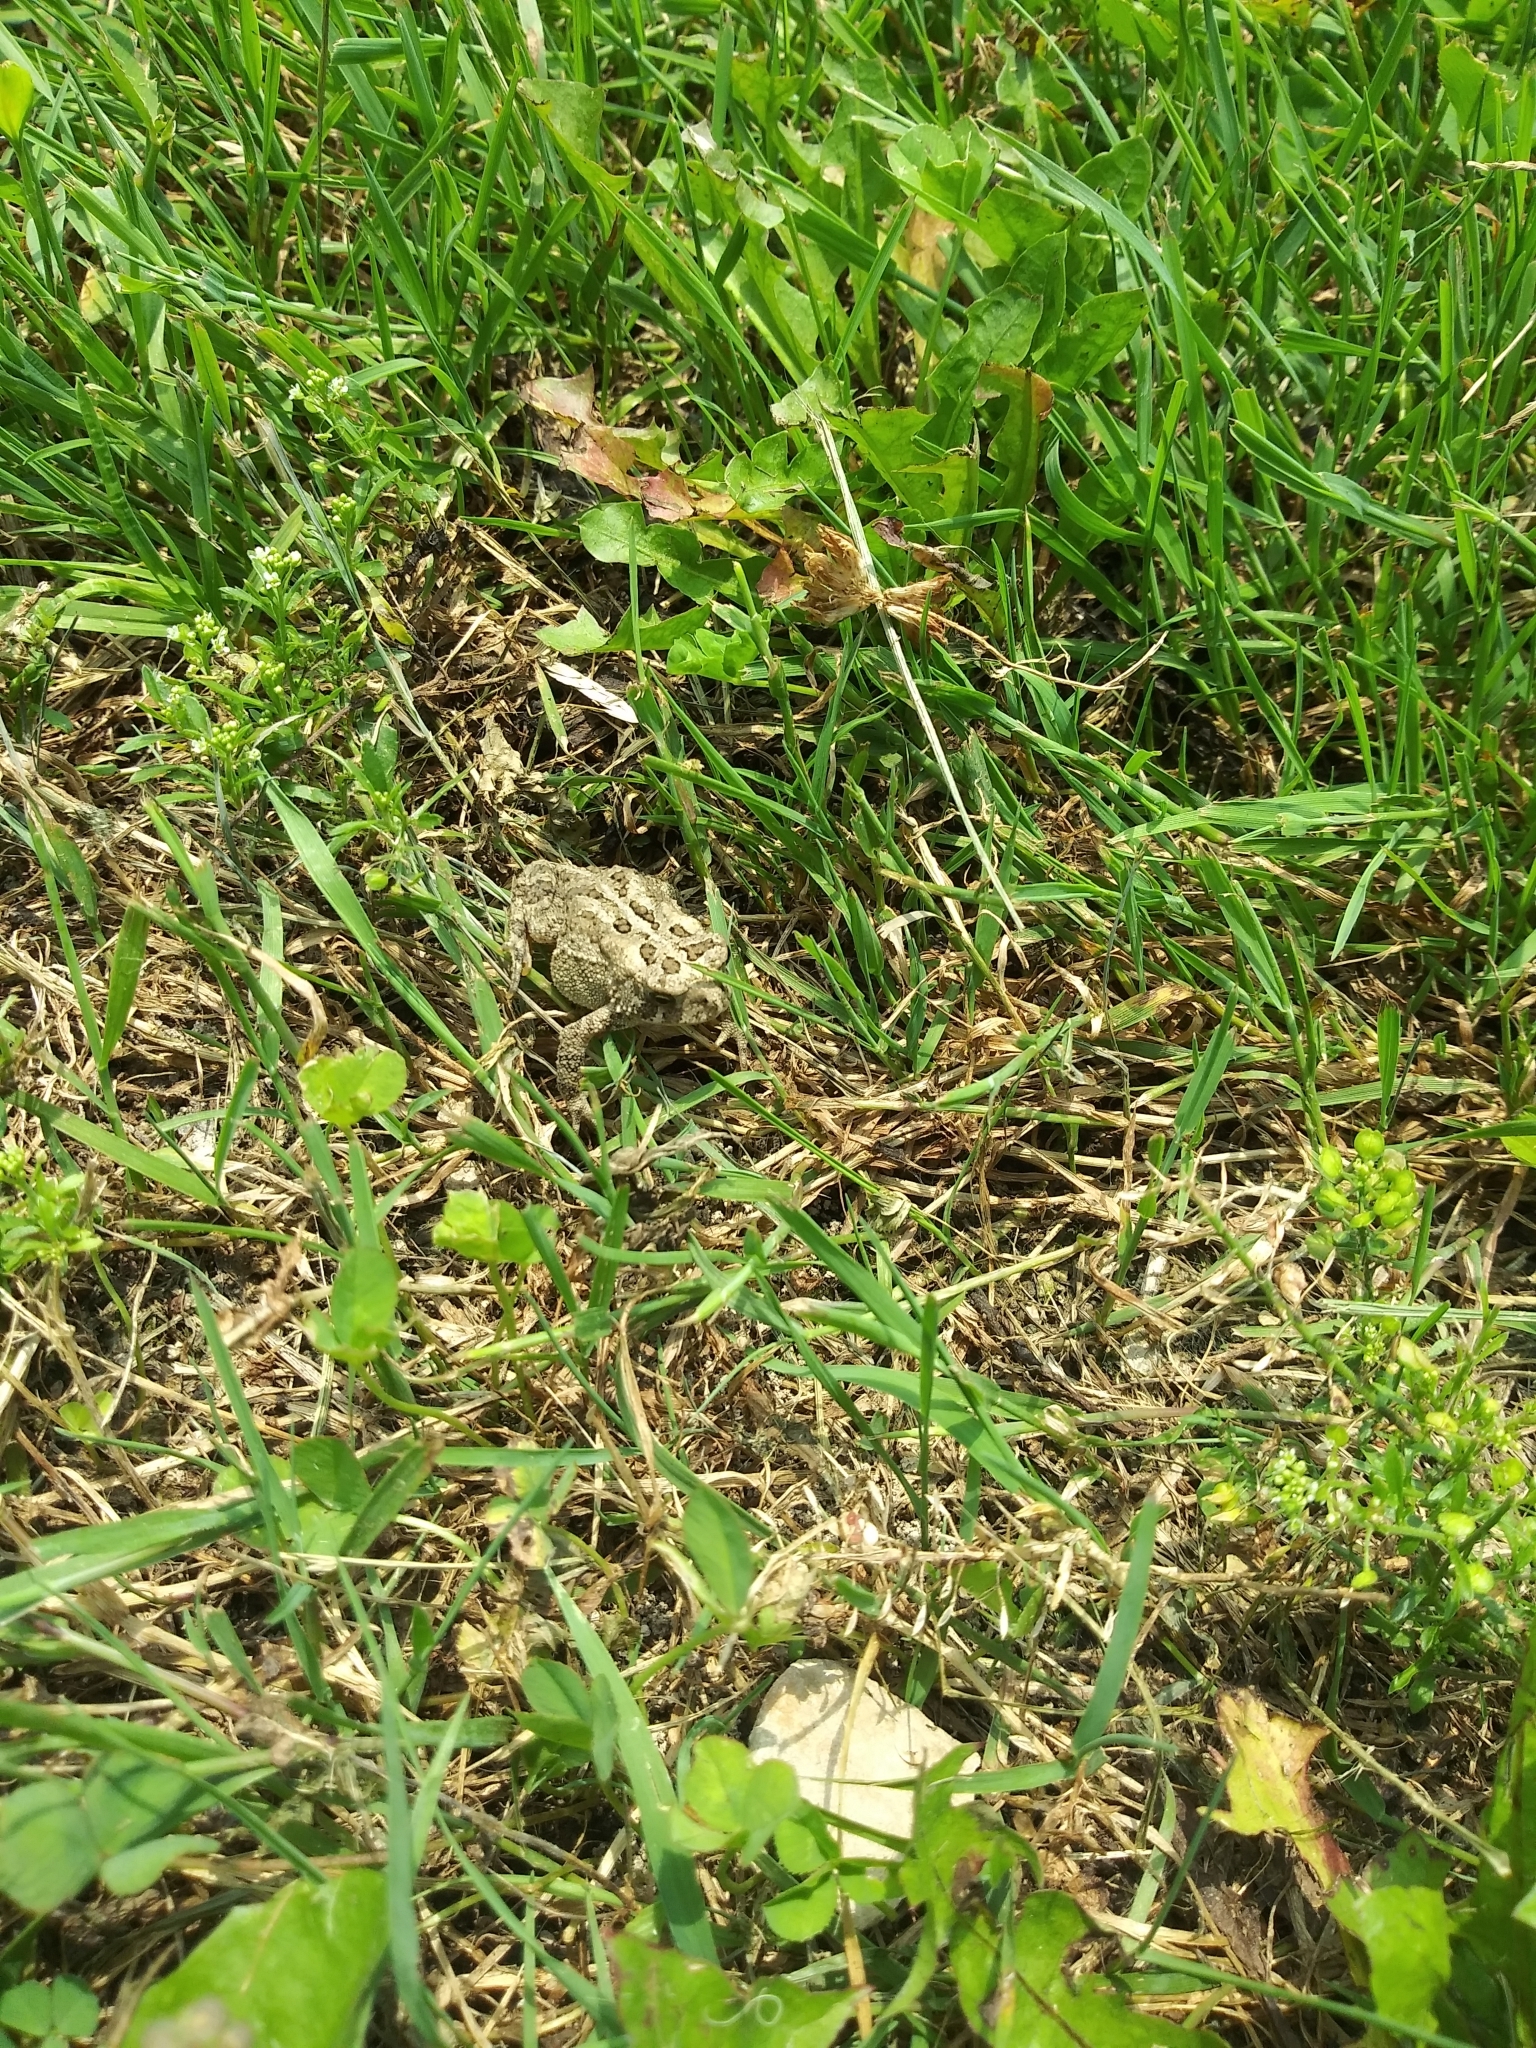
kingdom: Animalia
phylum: Chordata
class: Amphibia
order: Anura
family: Bufonidae
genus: Anaxyrus
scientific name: Anaxyrus americanus
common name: American toad
